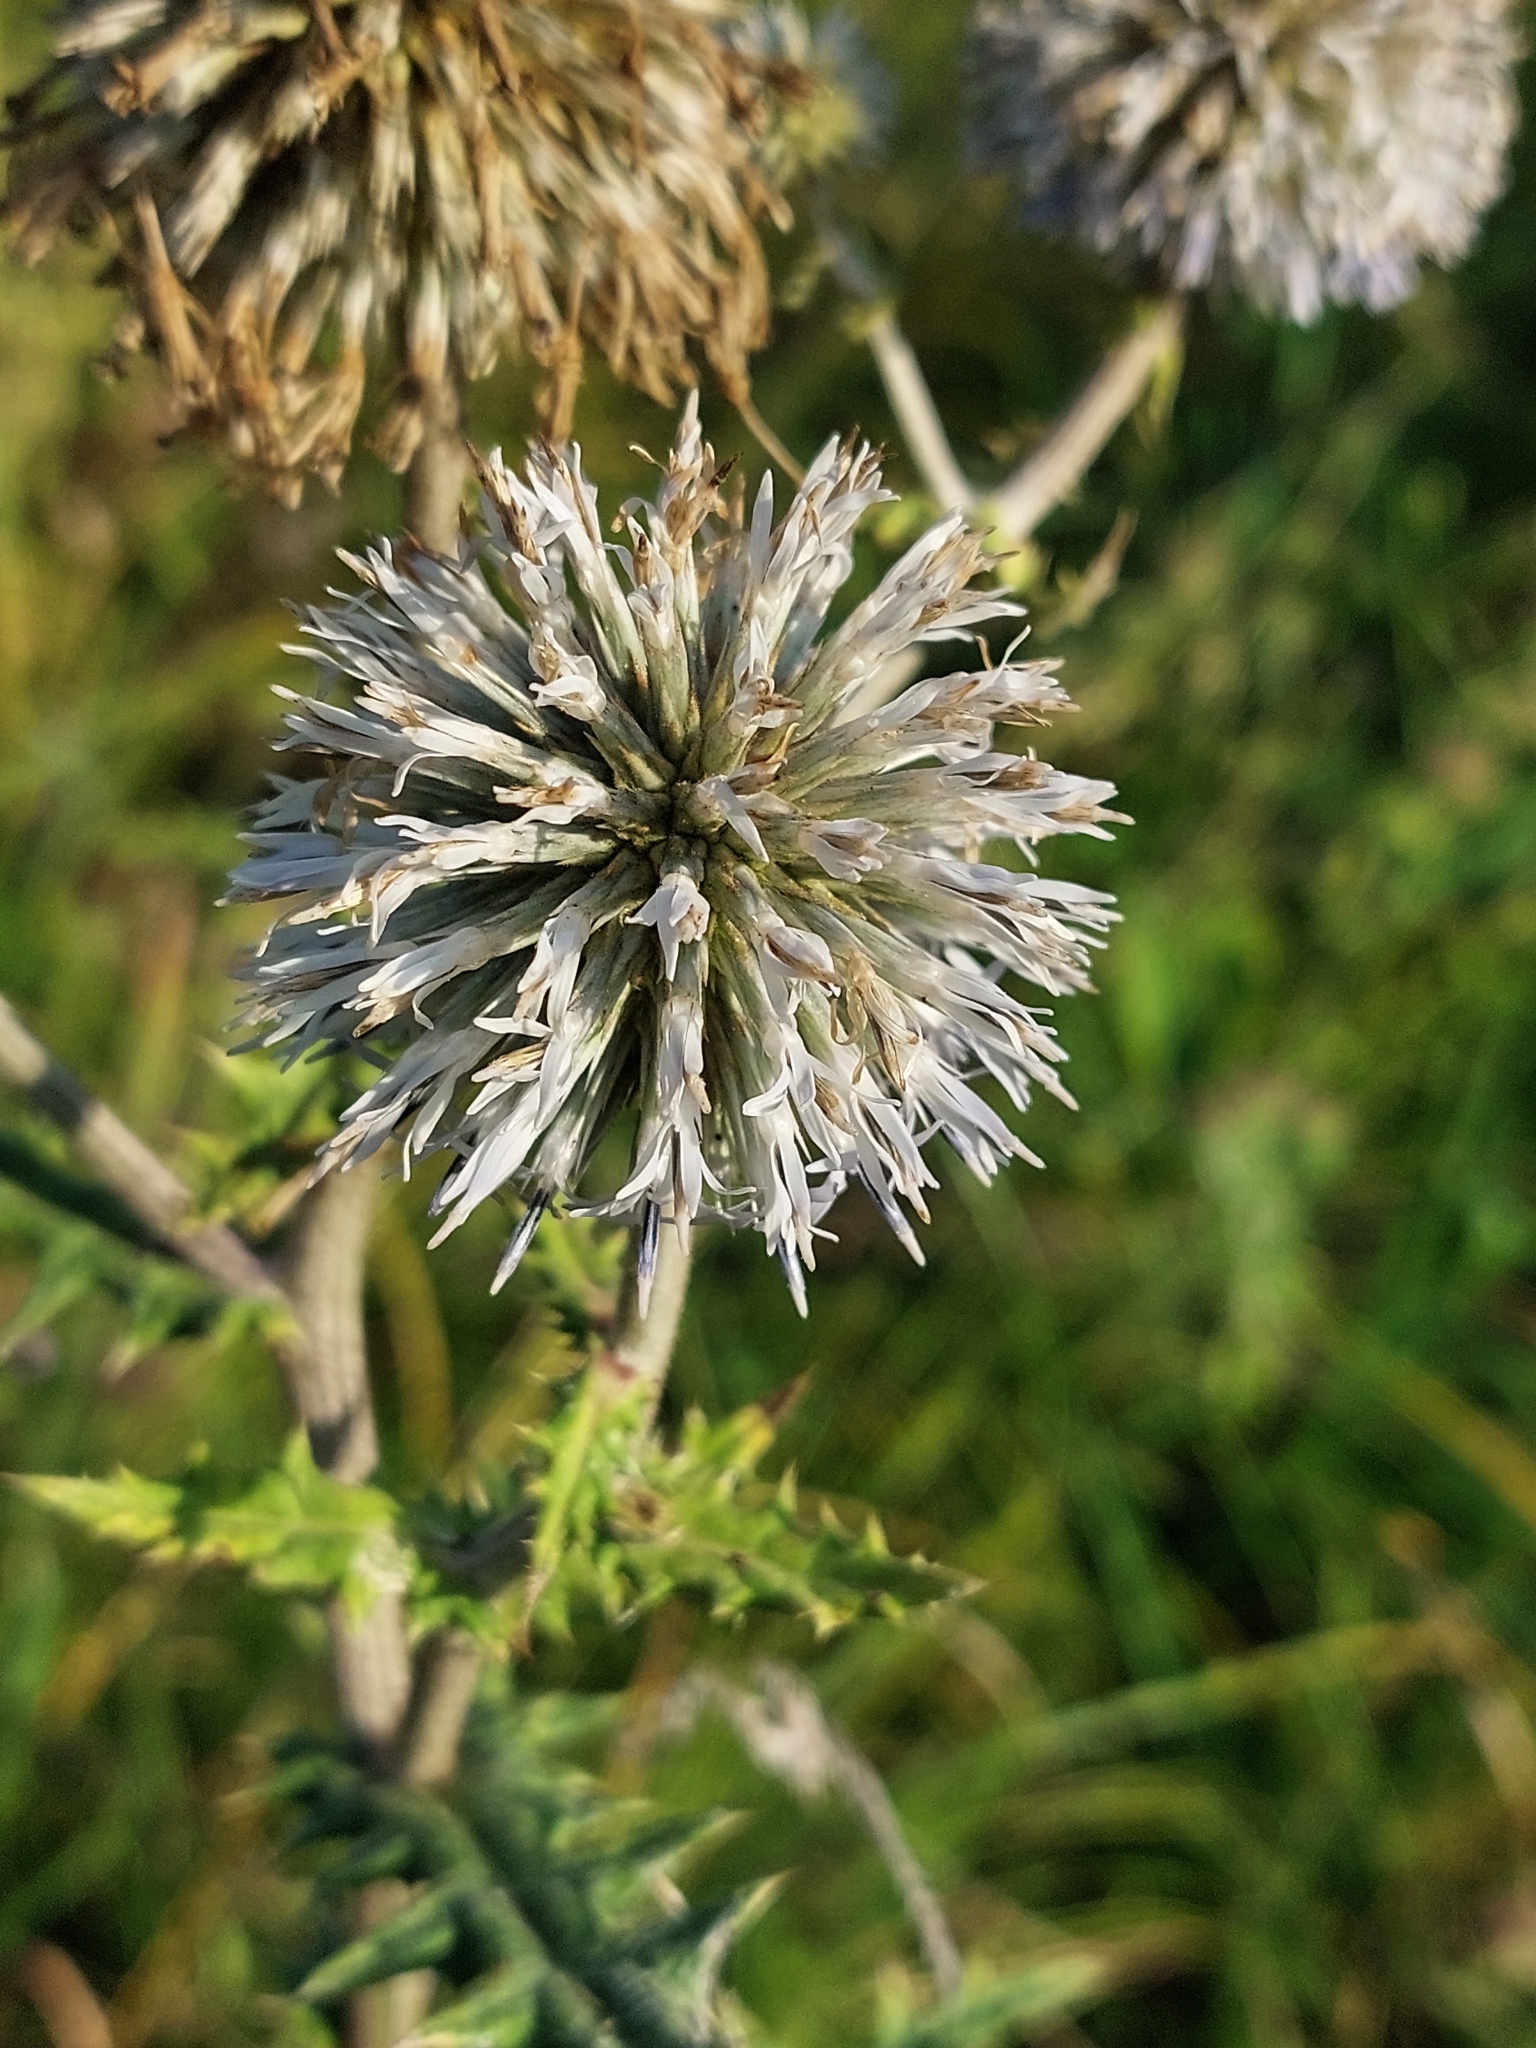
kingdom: Plantae
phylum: Tracheophyta
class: Magnoliopsida
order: Asterales
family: Asteraceae
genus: Echinops
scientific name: Echinops sphaerocephalus
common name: Glandular globe-thistle
